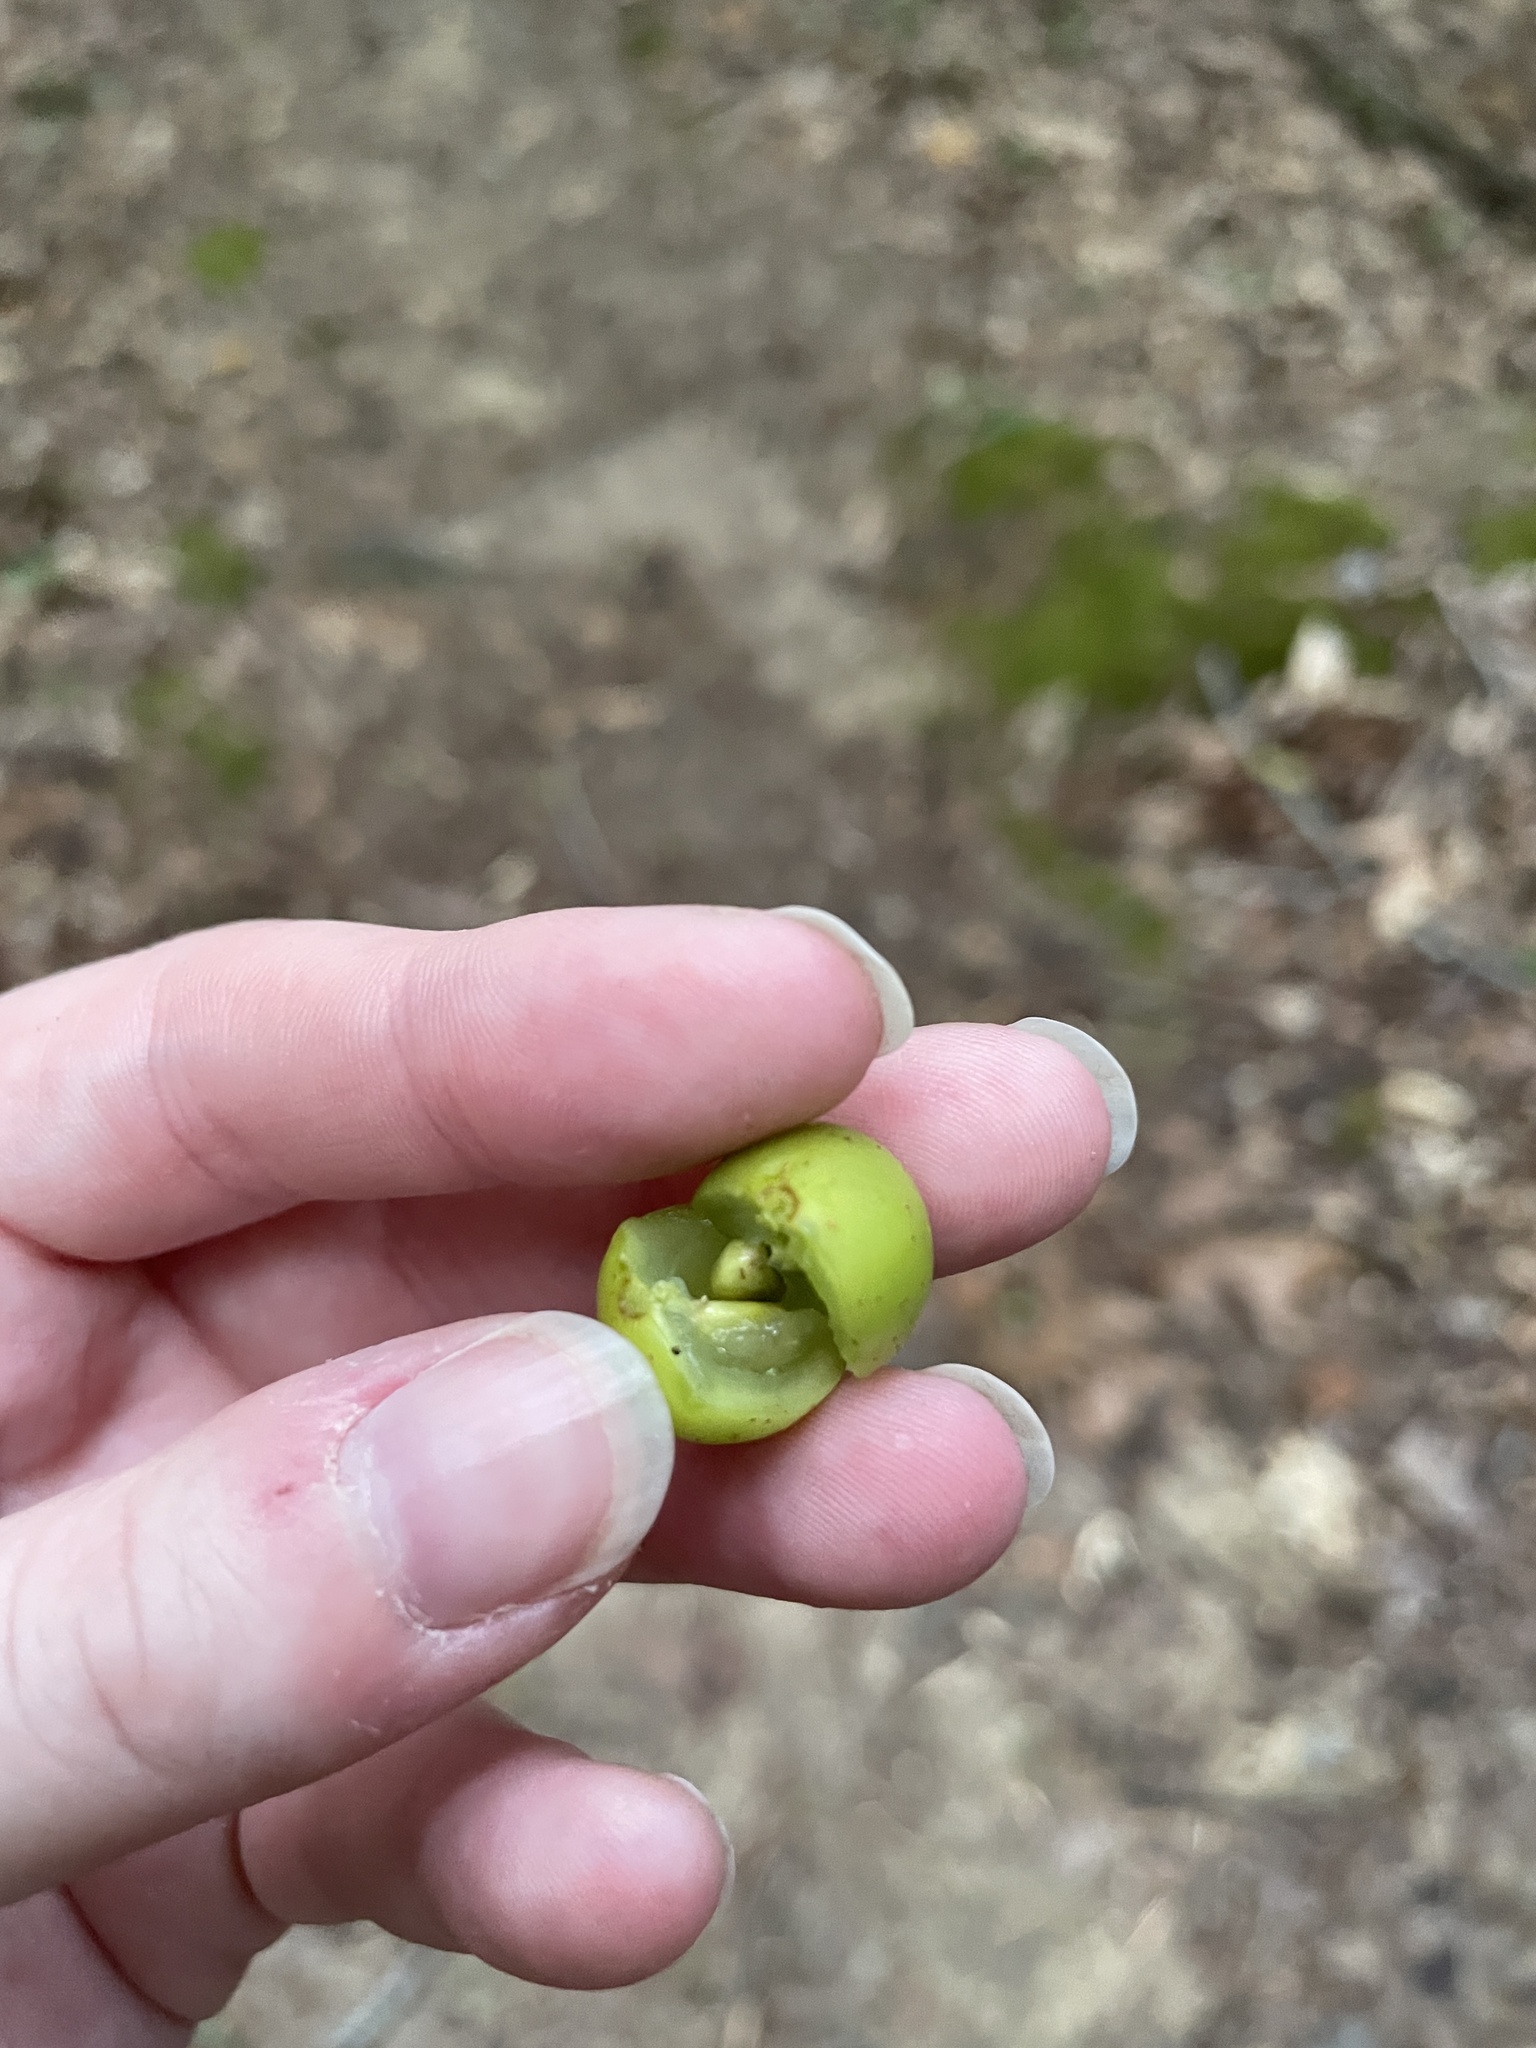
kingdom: Plantae
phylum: Tracheophyta
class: Magnoliopsida
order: Vitales
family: Vitaceae
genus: Vitis
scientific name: Vitis rotundifolia
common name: Muscadine grape
